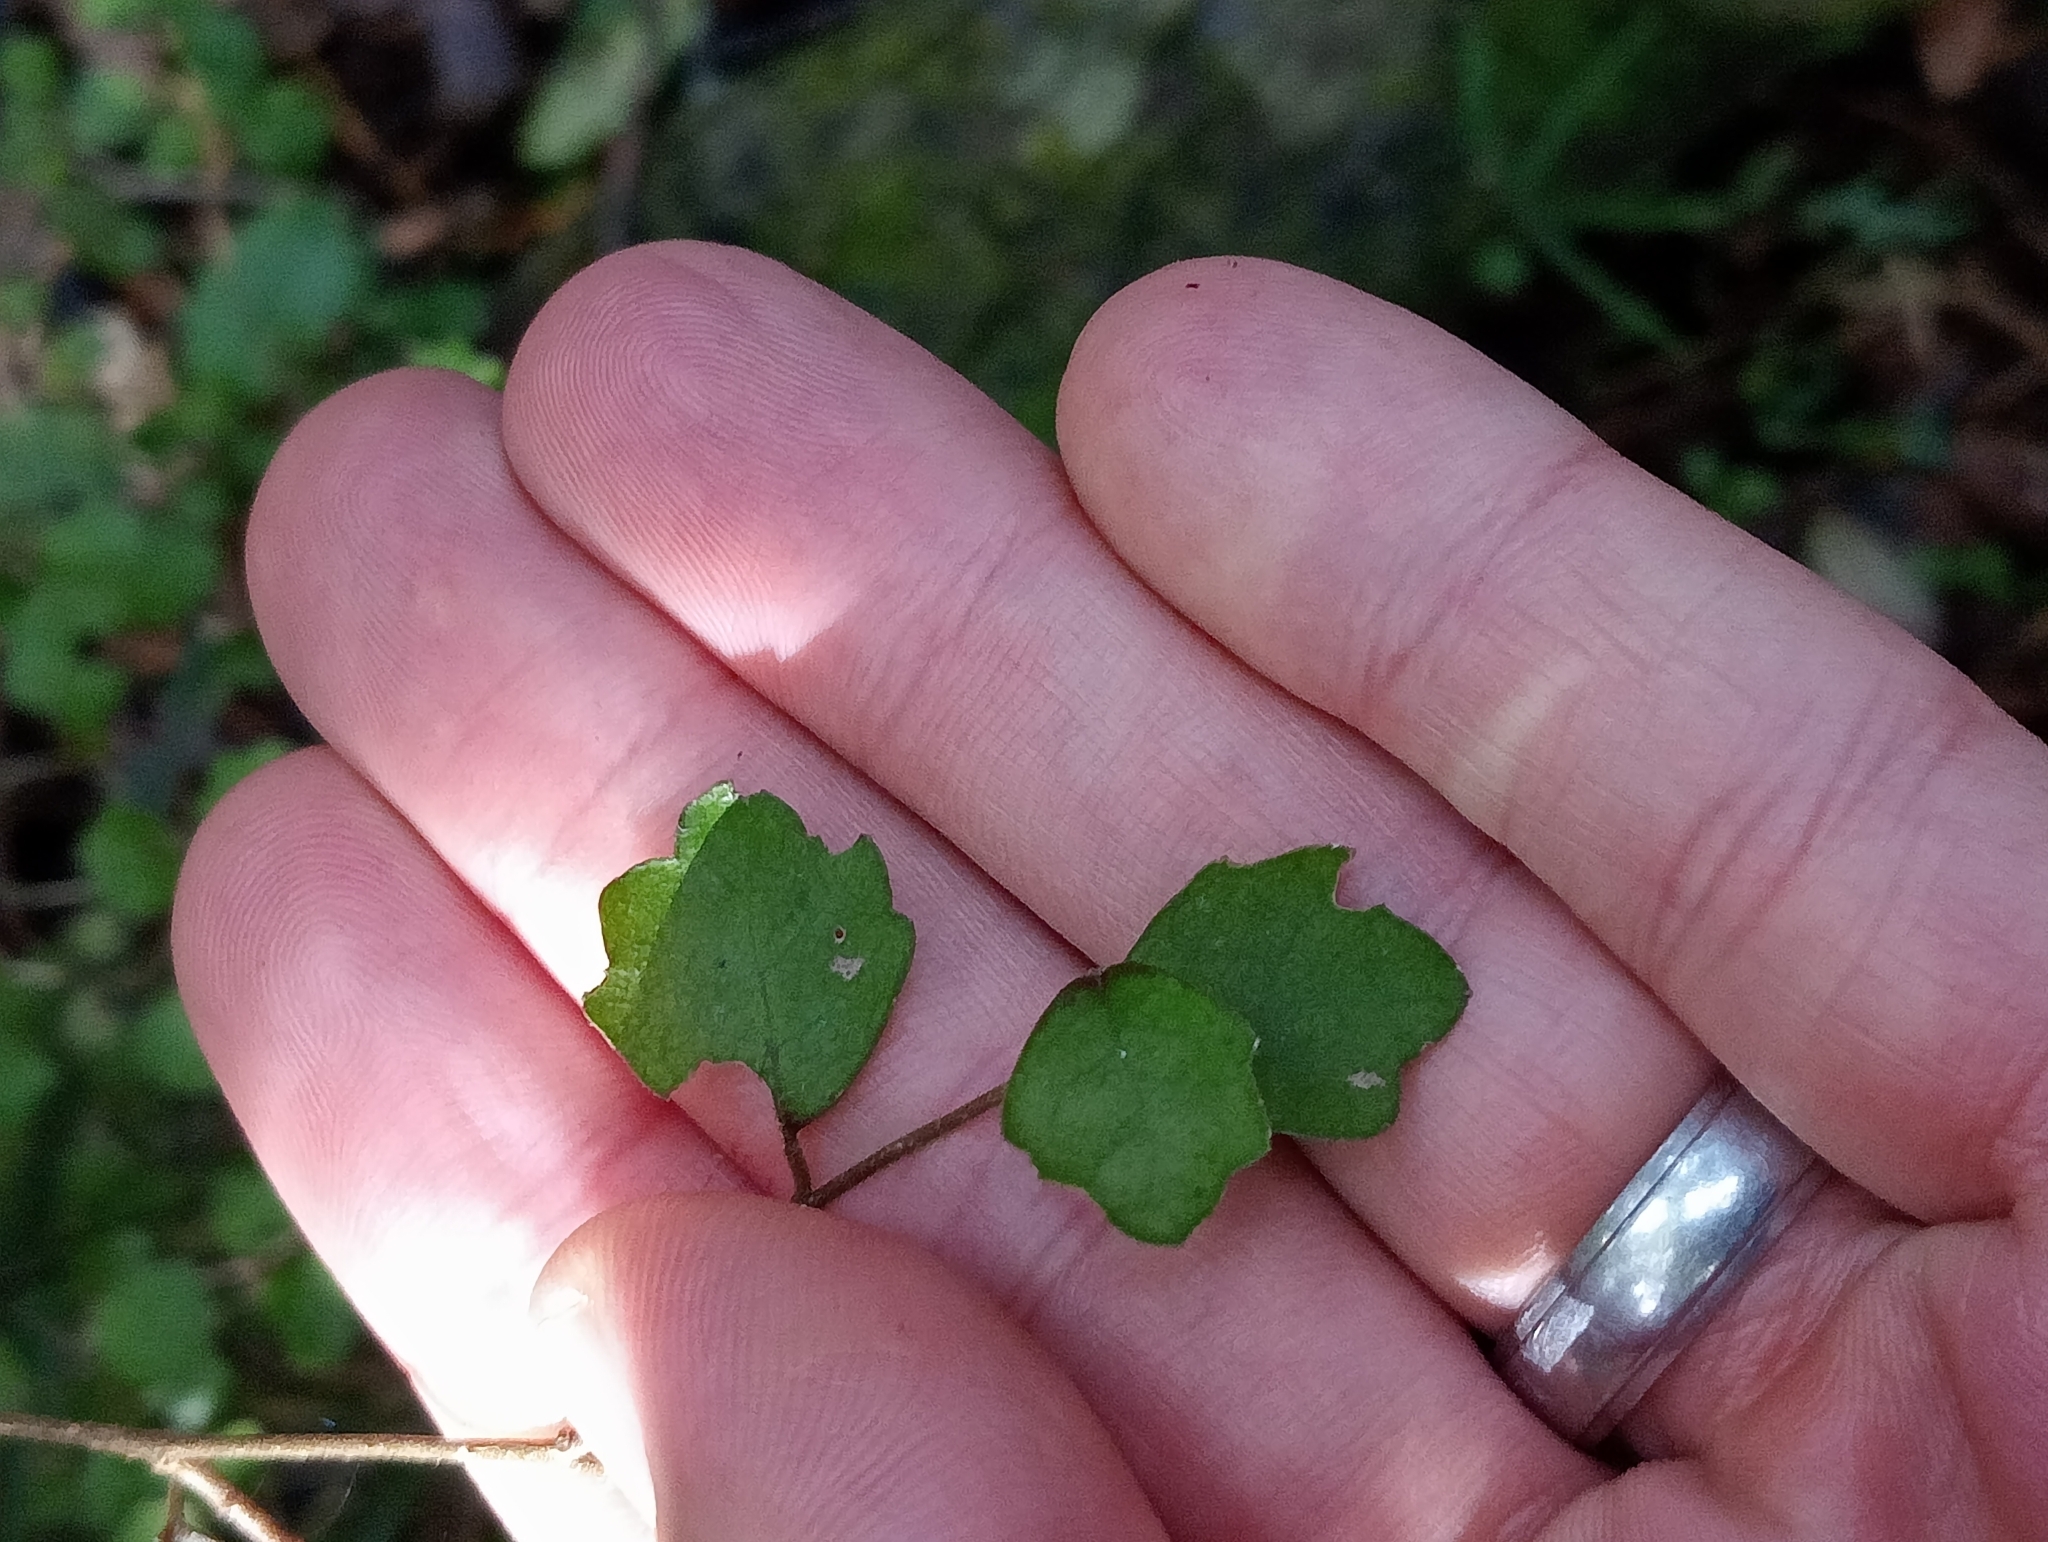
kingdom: Plantae
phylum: Tracheophyta
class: Magnoliopsida
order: Apiales
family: Pennantiaceae
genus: Pennantia
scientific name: Pennantia corymbosa
